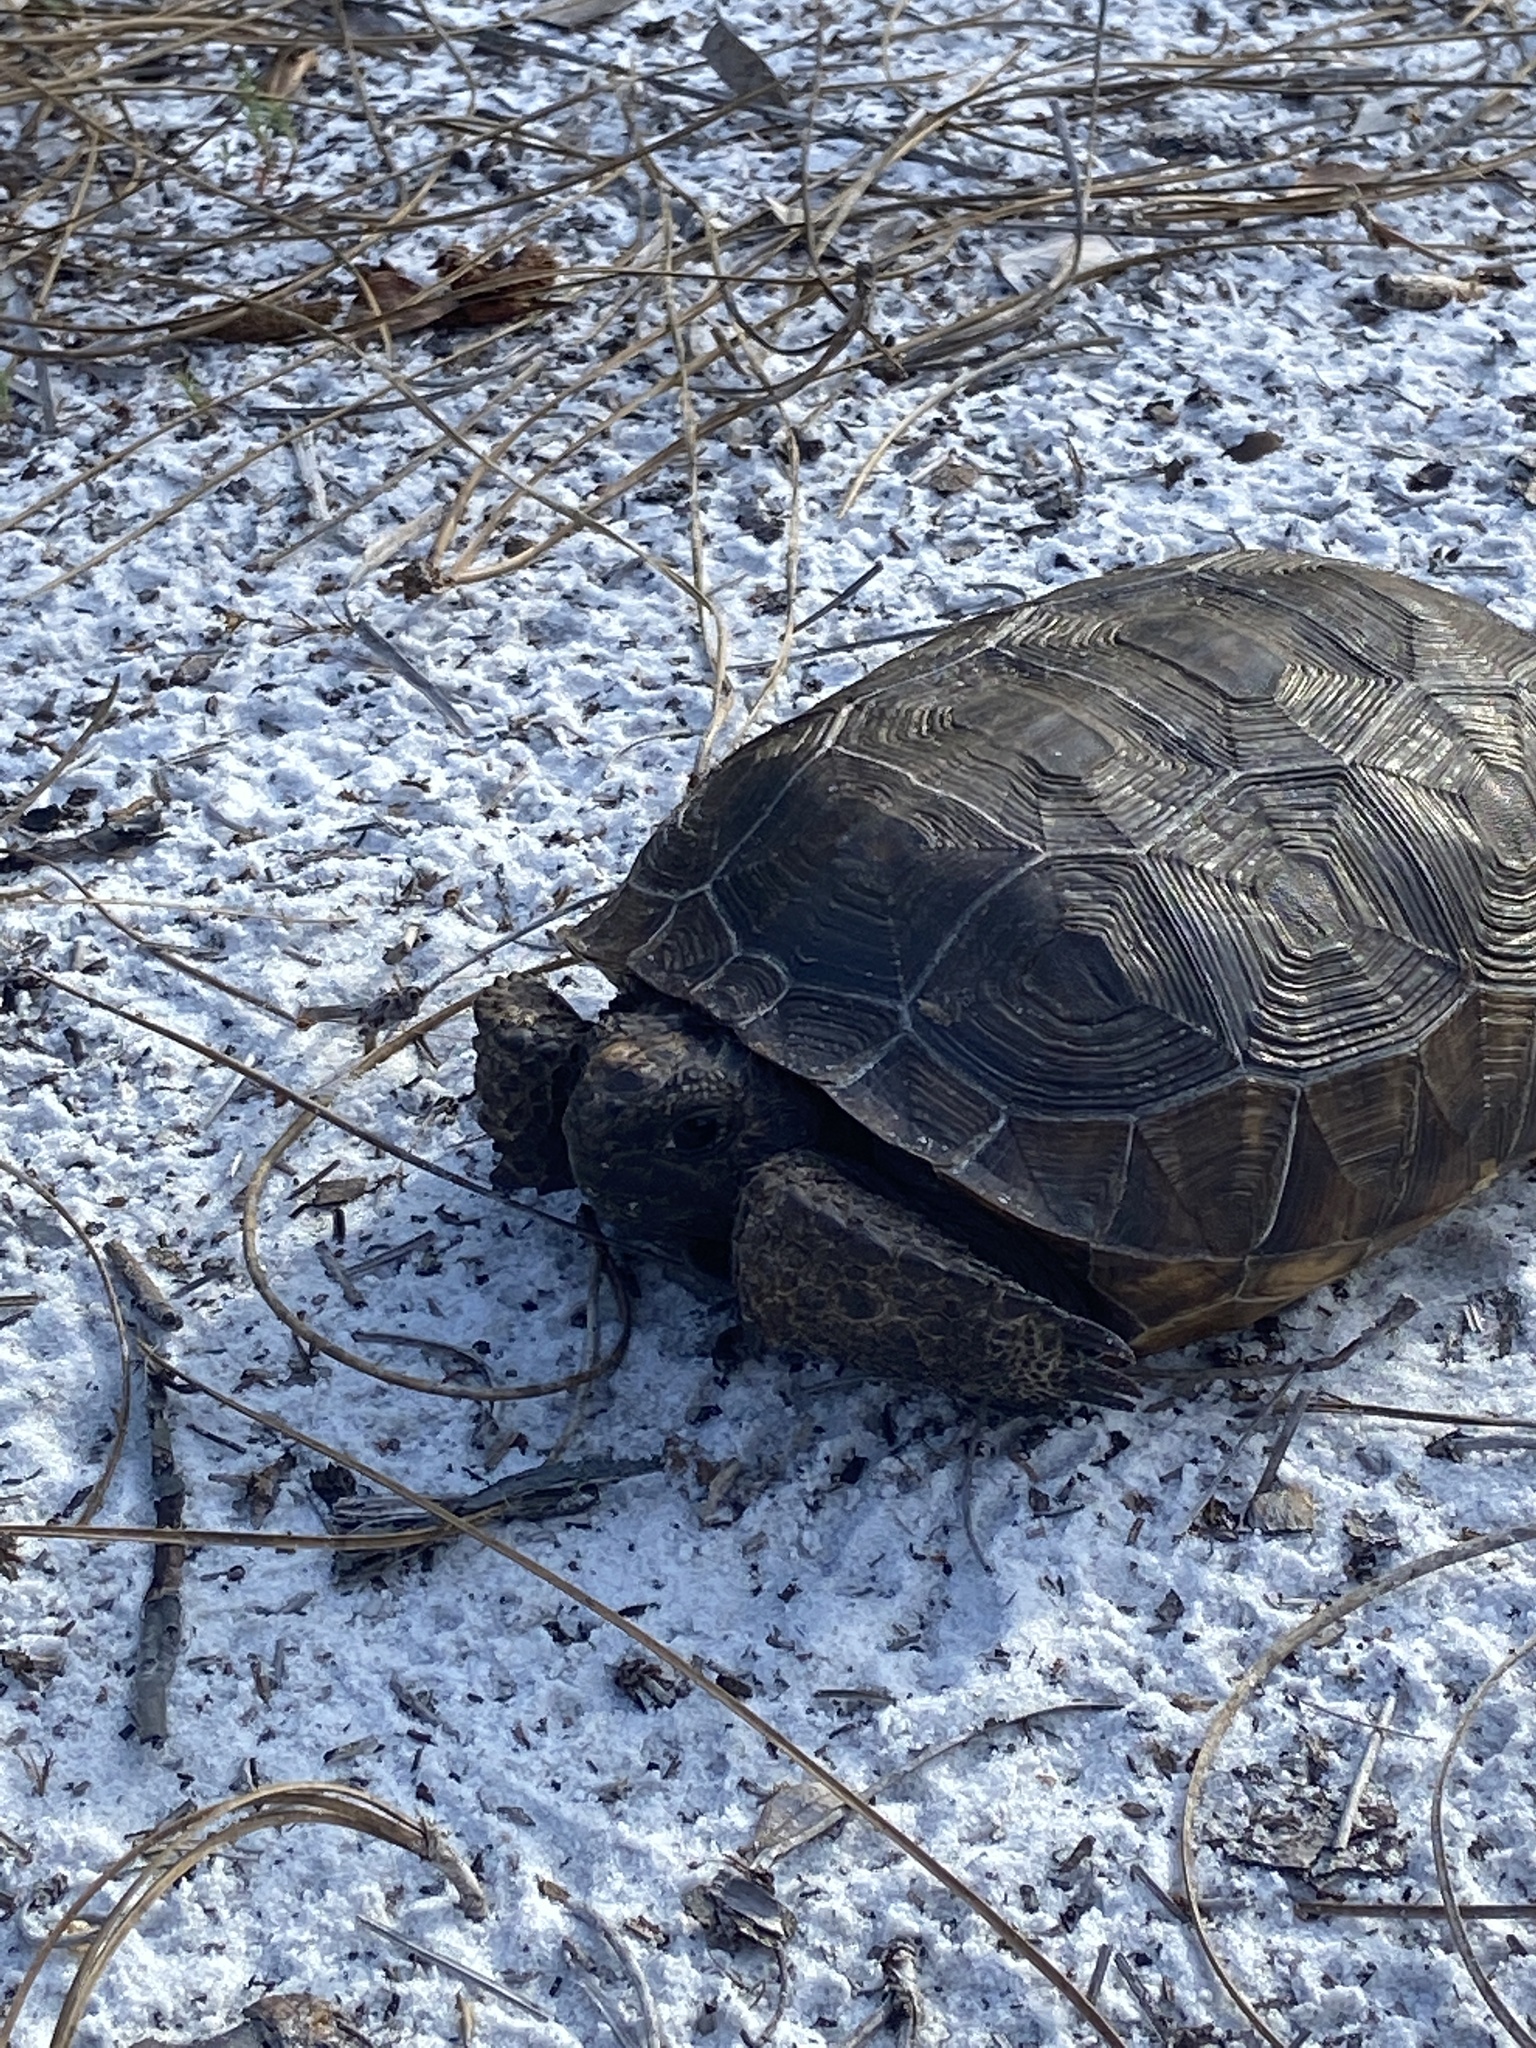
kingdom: Animalia
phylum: Chordata
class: Testudines
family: Testudinidae
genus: Gopherus
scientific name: Gopherus polyphemus
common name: Florida gopher tortoise
